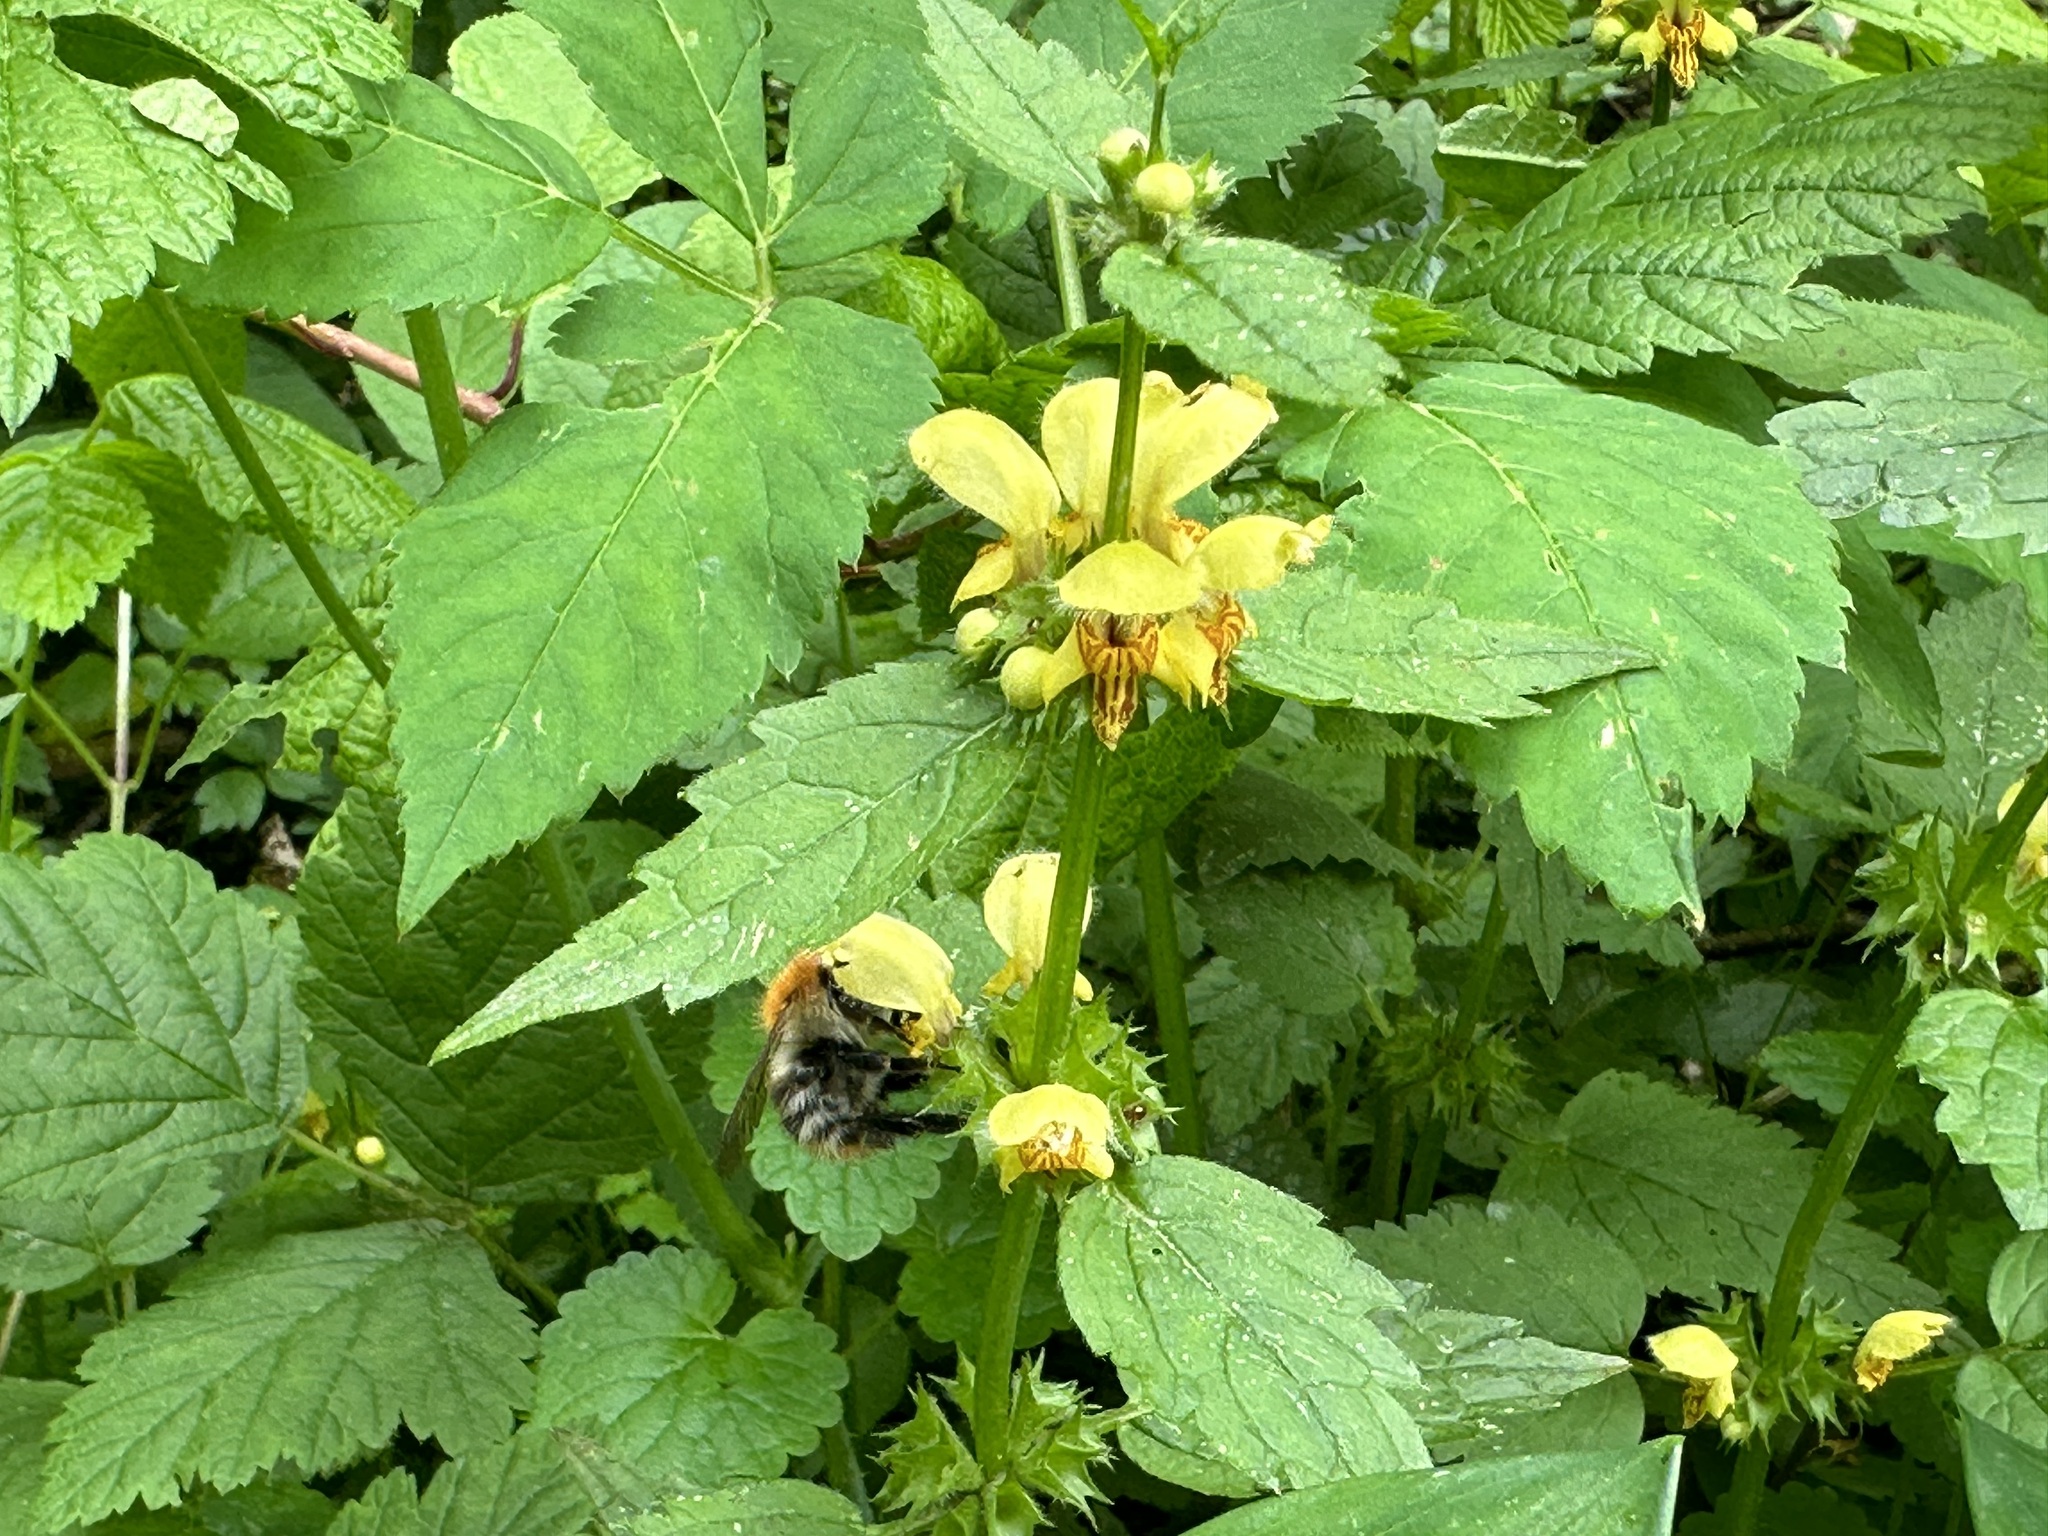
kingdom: Plantae
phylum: Tracheophyta
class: Magnoliopsida
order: Lamiales
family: Lamiaceae
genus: Lamium
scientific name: Lamium galeobdolon
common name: Yellow archangel
